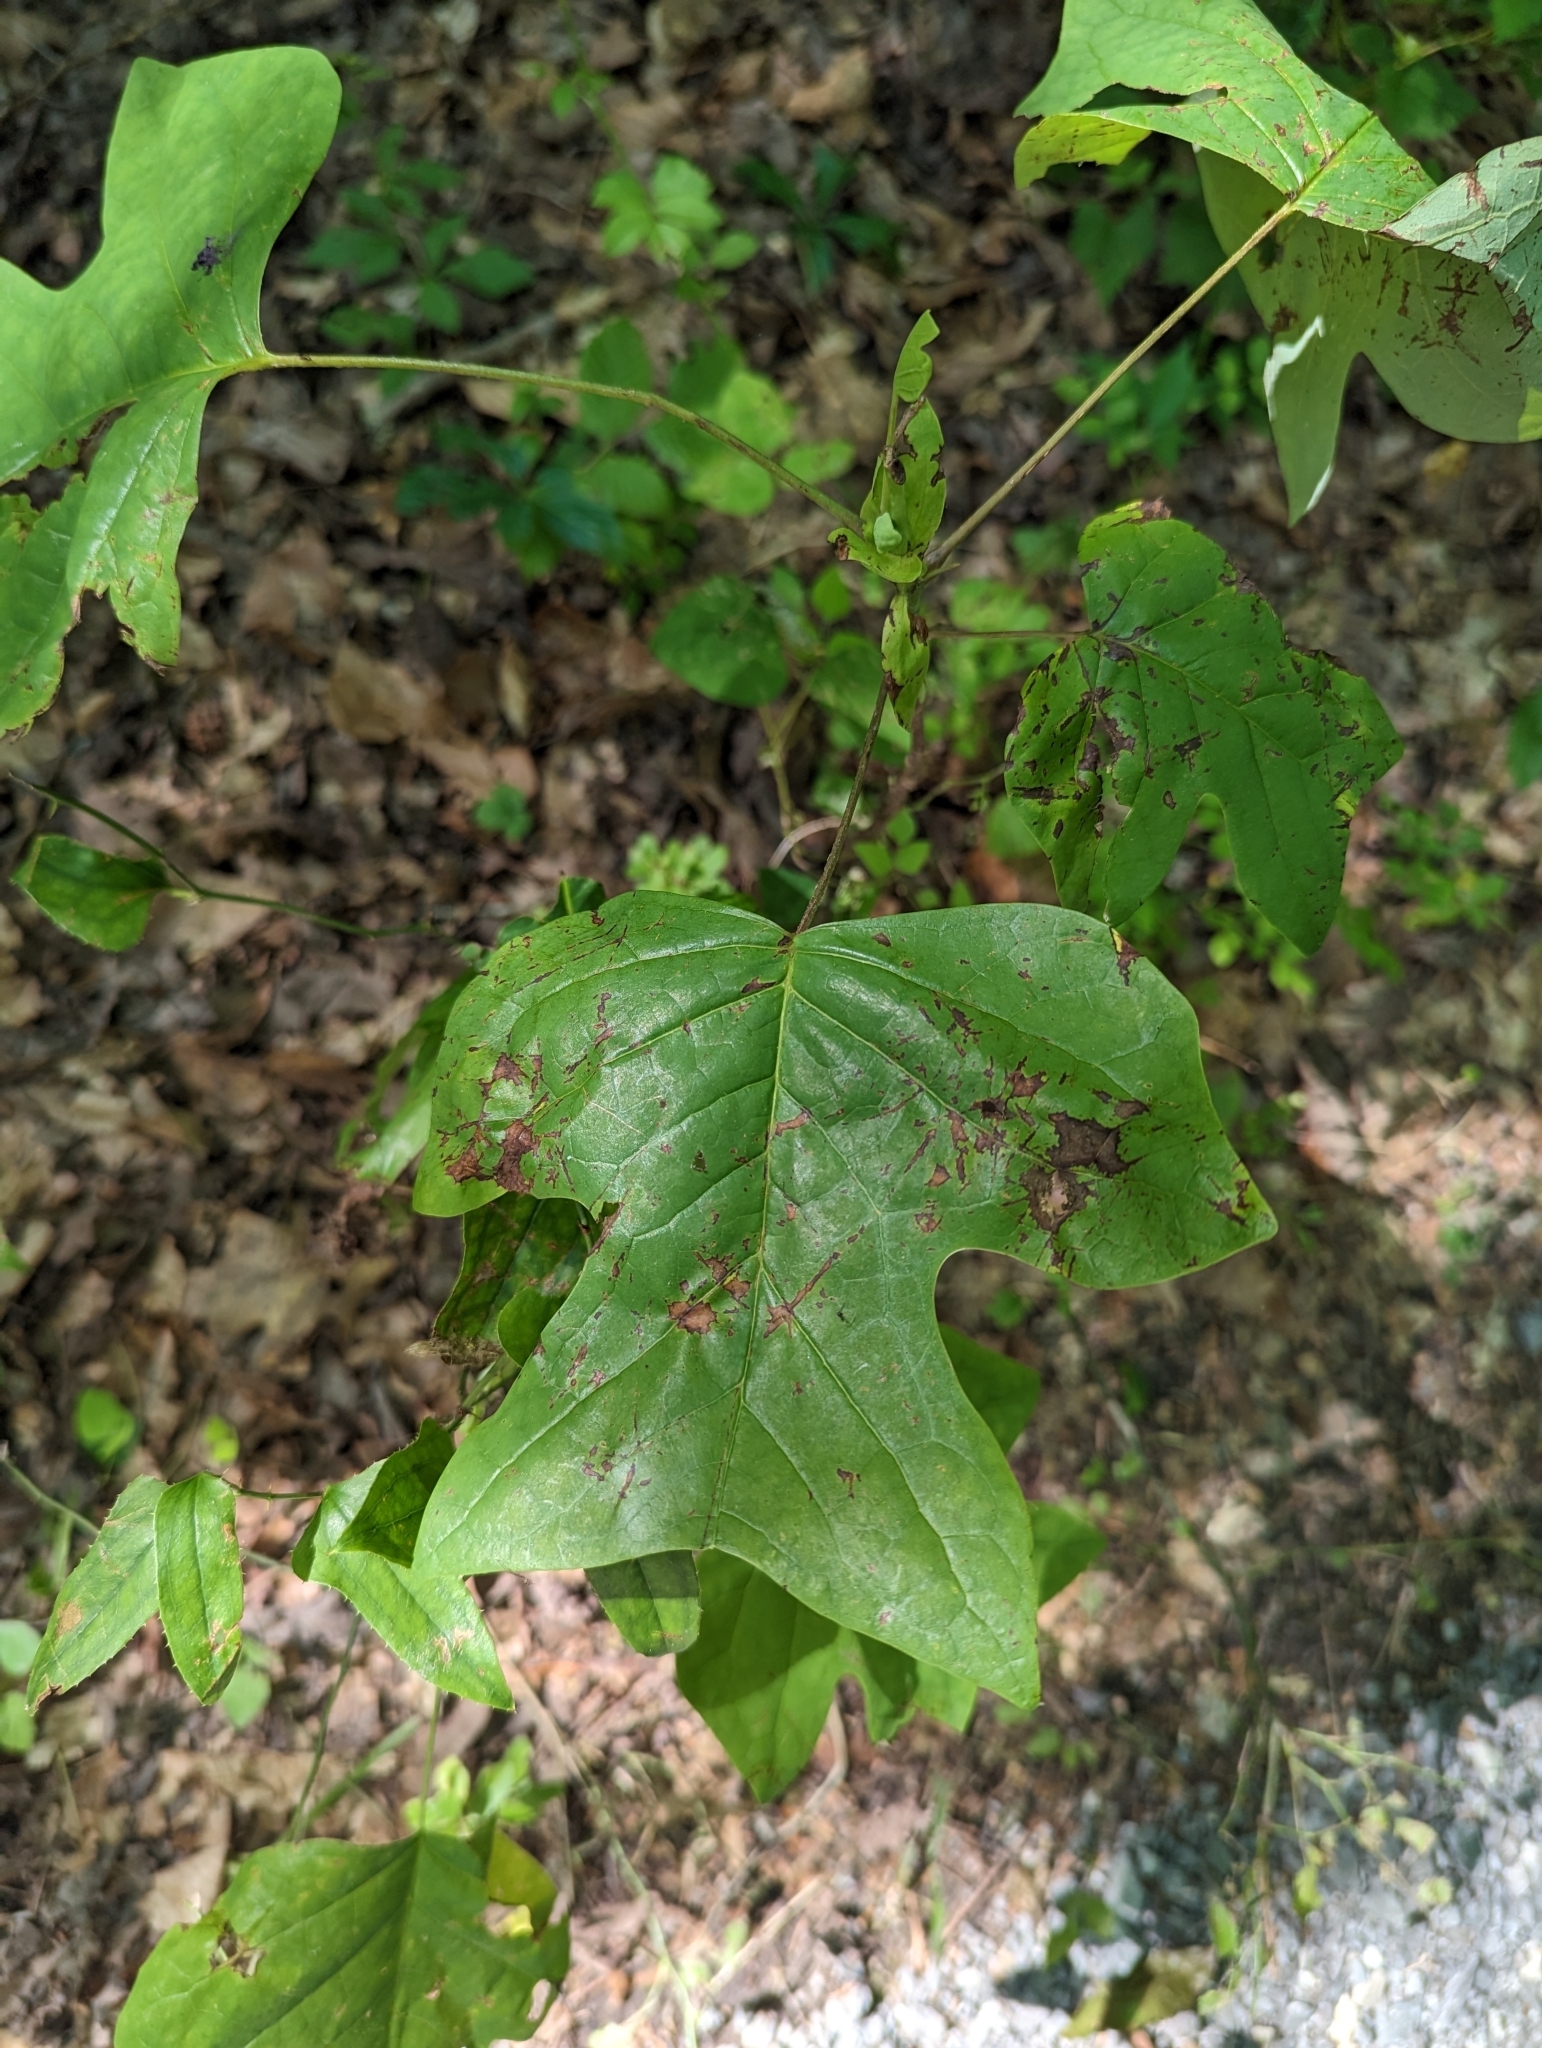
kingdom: Plantae
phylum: Tracheophyta
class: Magnoliopsida
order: Magnoliales
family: Magnoliaceae
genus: Liriodendron
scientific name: Liriodendron tulipifera
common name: Tulip tree
